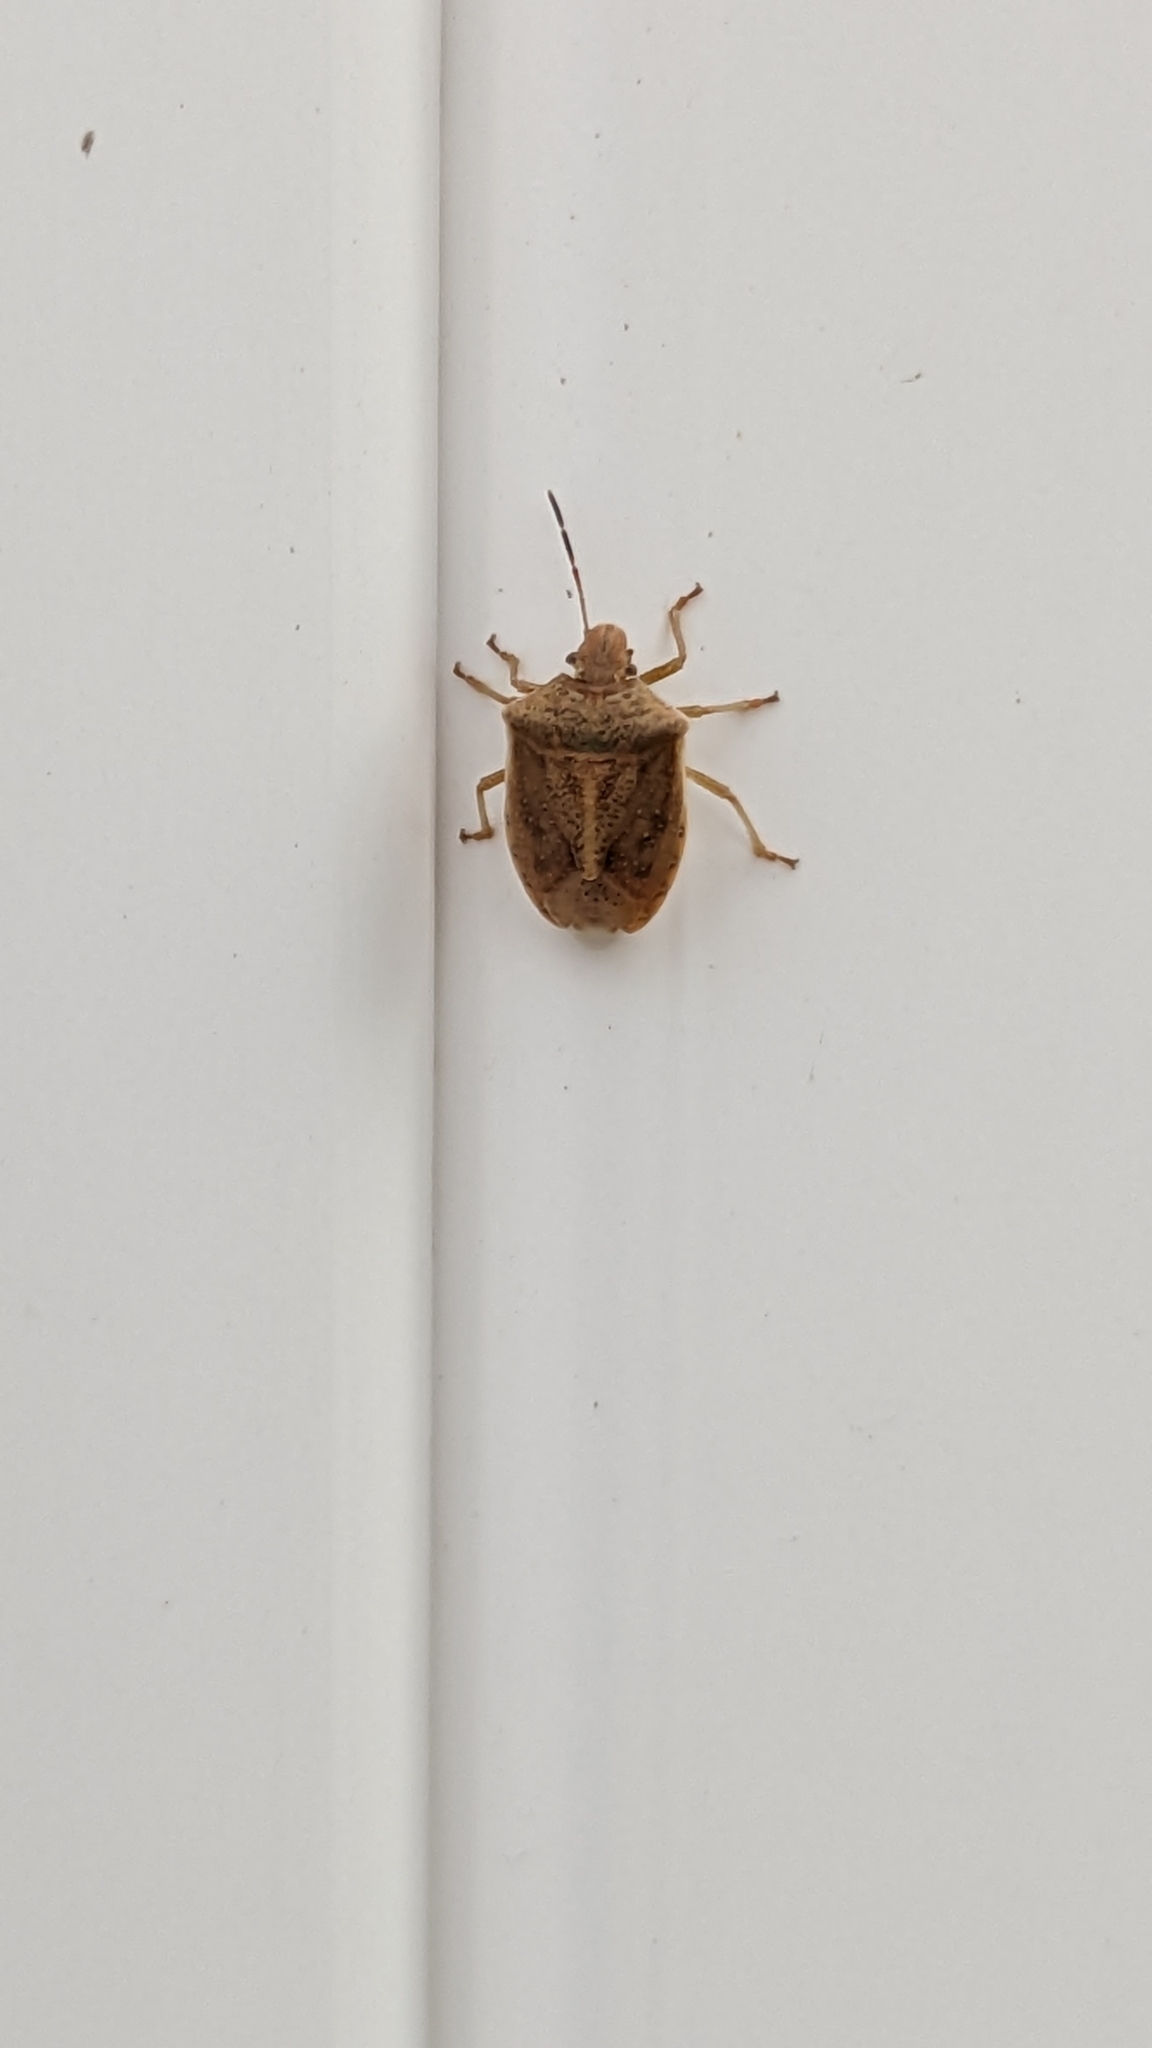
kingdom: Animalia
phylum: Arthropoda
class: Insecta
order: Hemiptera
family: Pentatomidae
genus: Thyanta
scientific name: Thyanta accerra
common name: Stink bug
